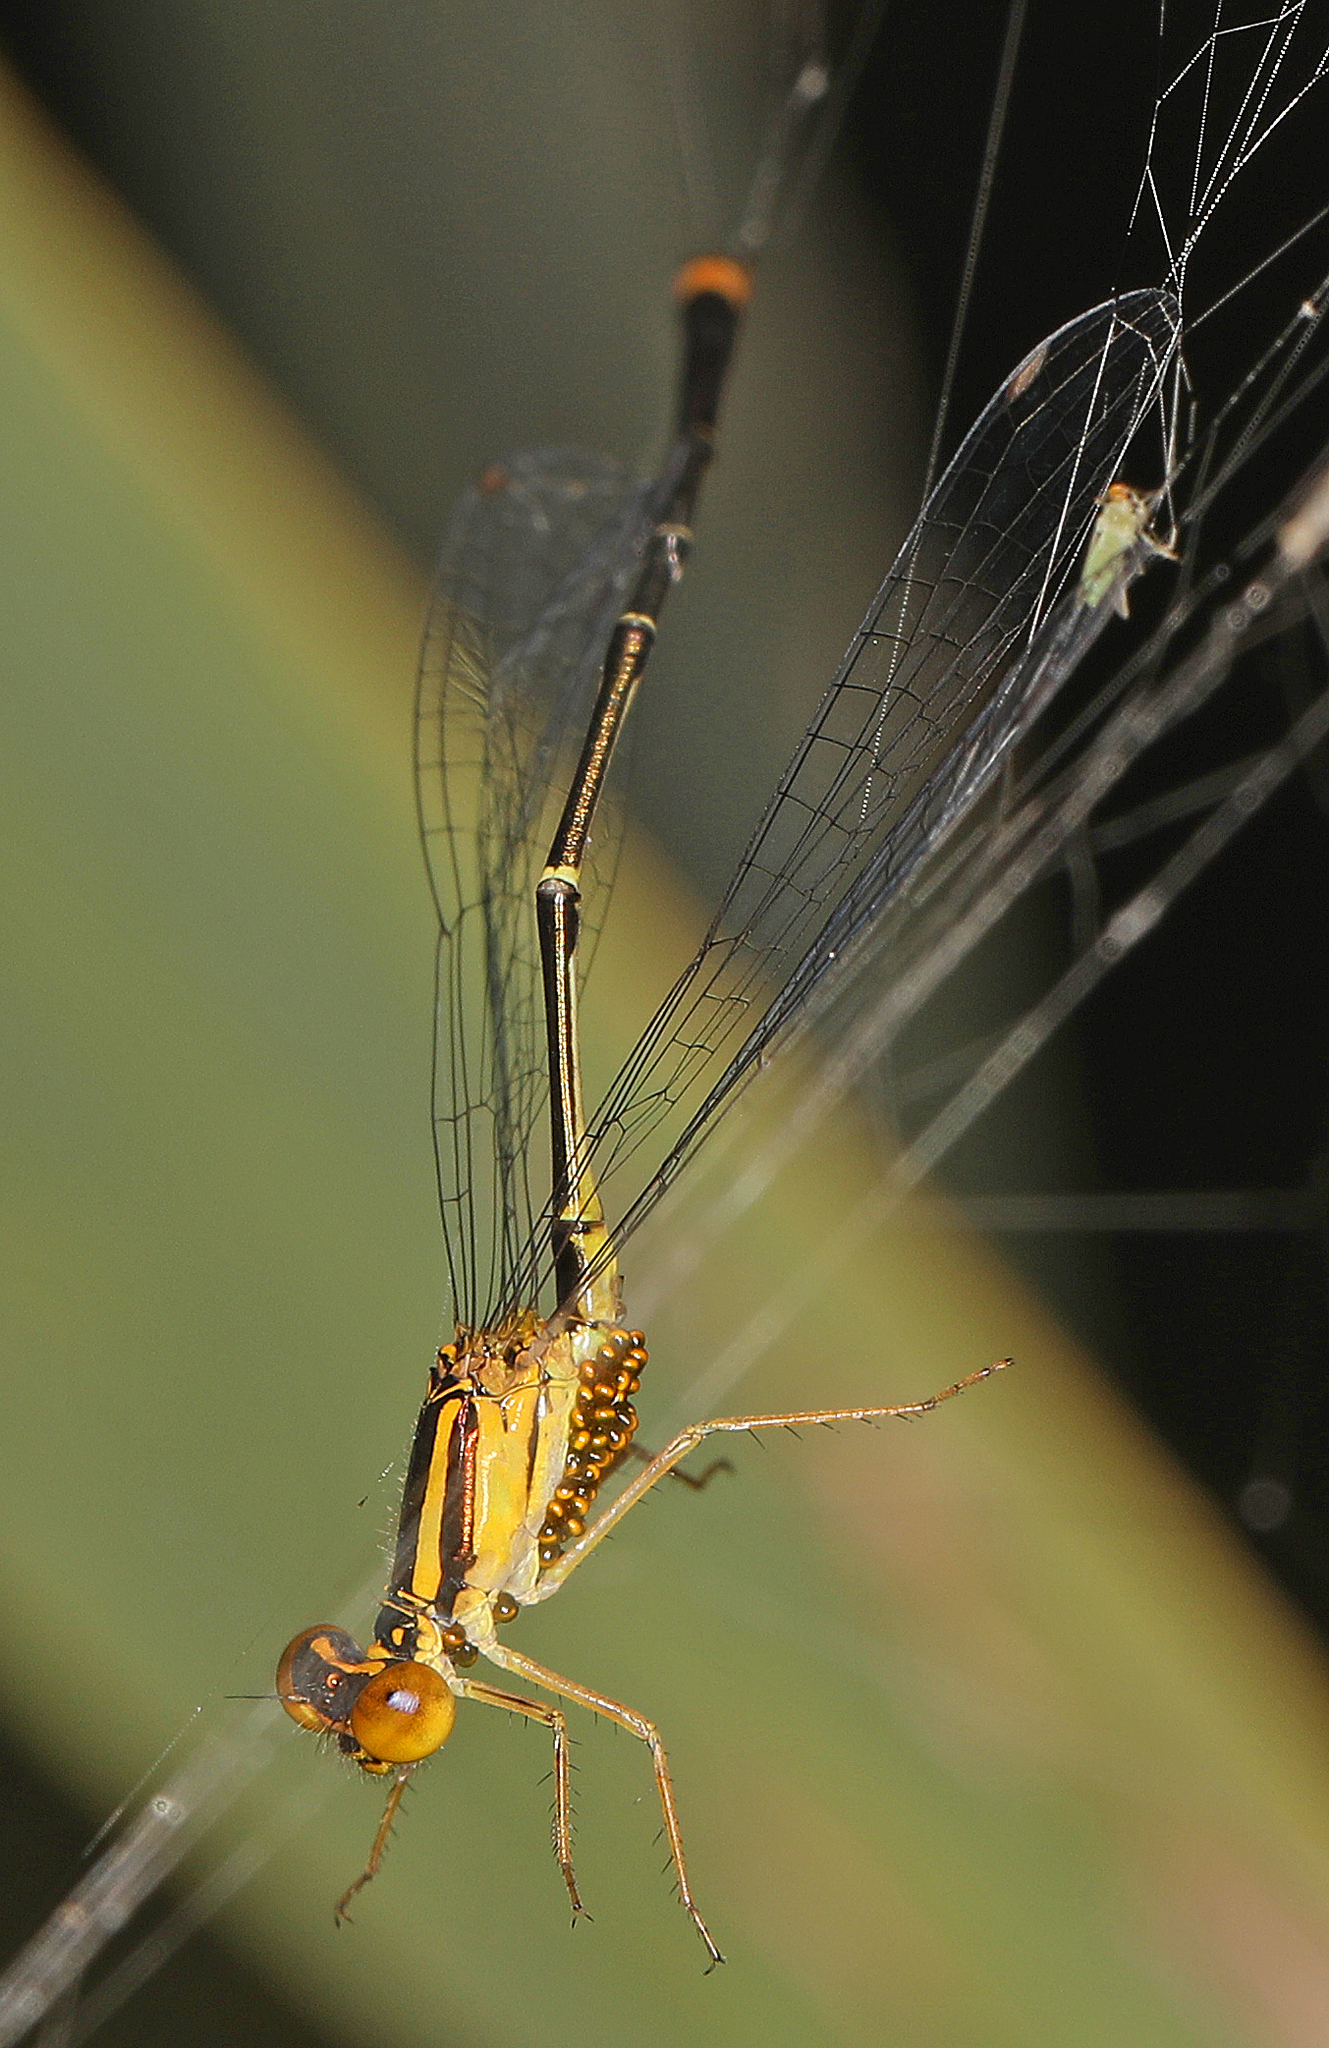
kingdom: Animalia
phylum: Arthropoda
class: Insecta
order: Odonata
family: Coenagrionidae
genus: Enallagma
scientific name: Enallagma signatum
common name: Orange bluet
